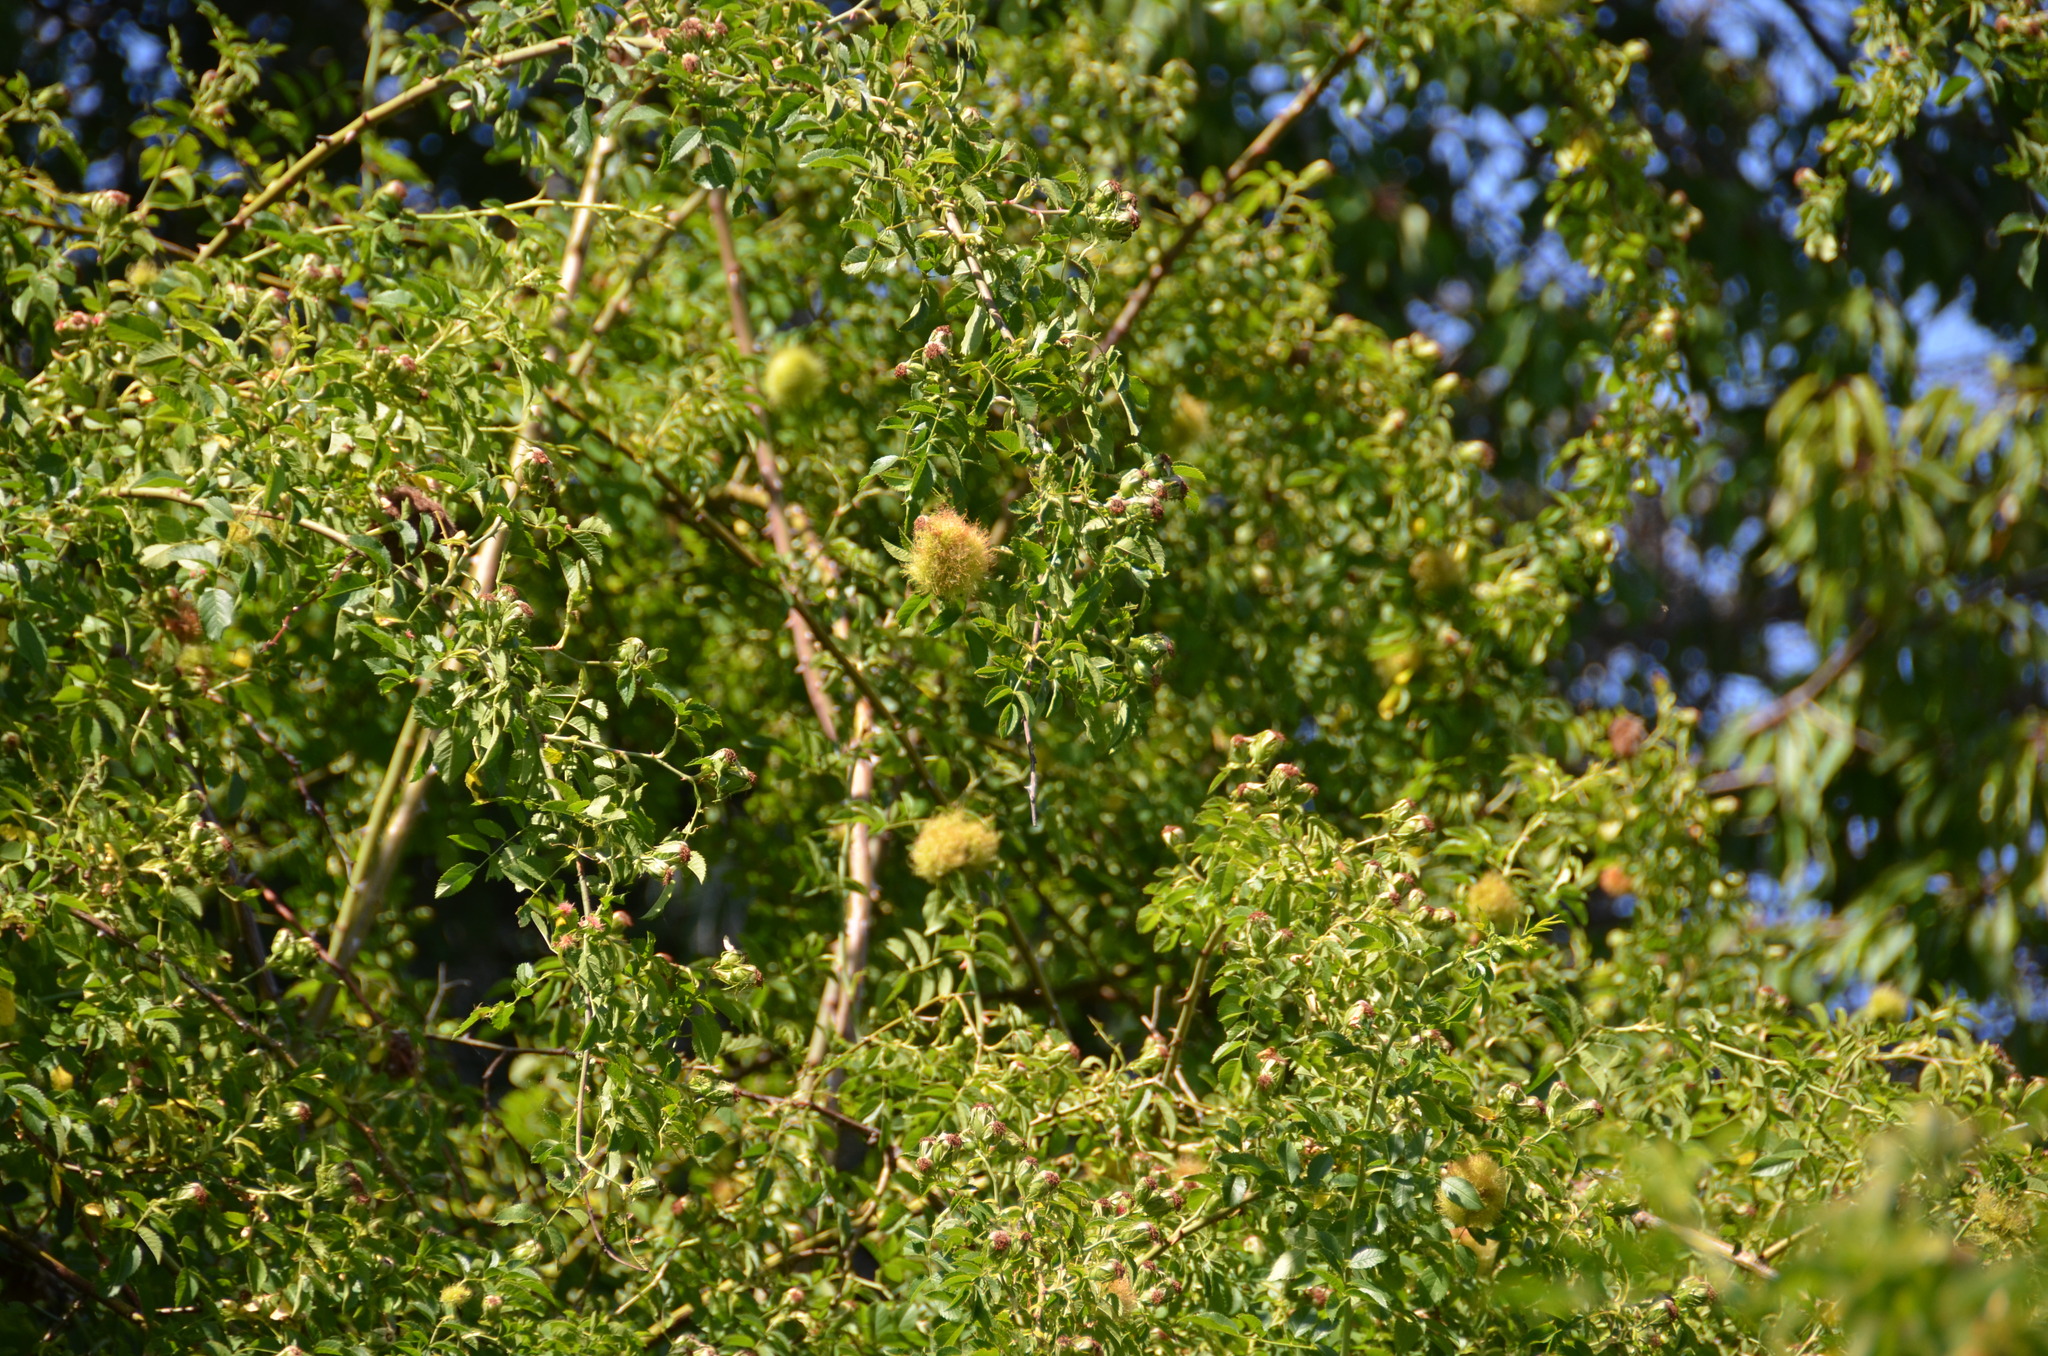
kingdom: Animalia
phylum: Arthropoda
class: Insecta
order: Hymenoptera
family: Cynipidae
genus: Diplolepis
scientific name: Diplolepis rosae
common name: Bedeguar gall
